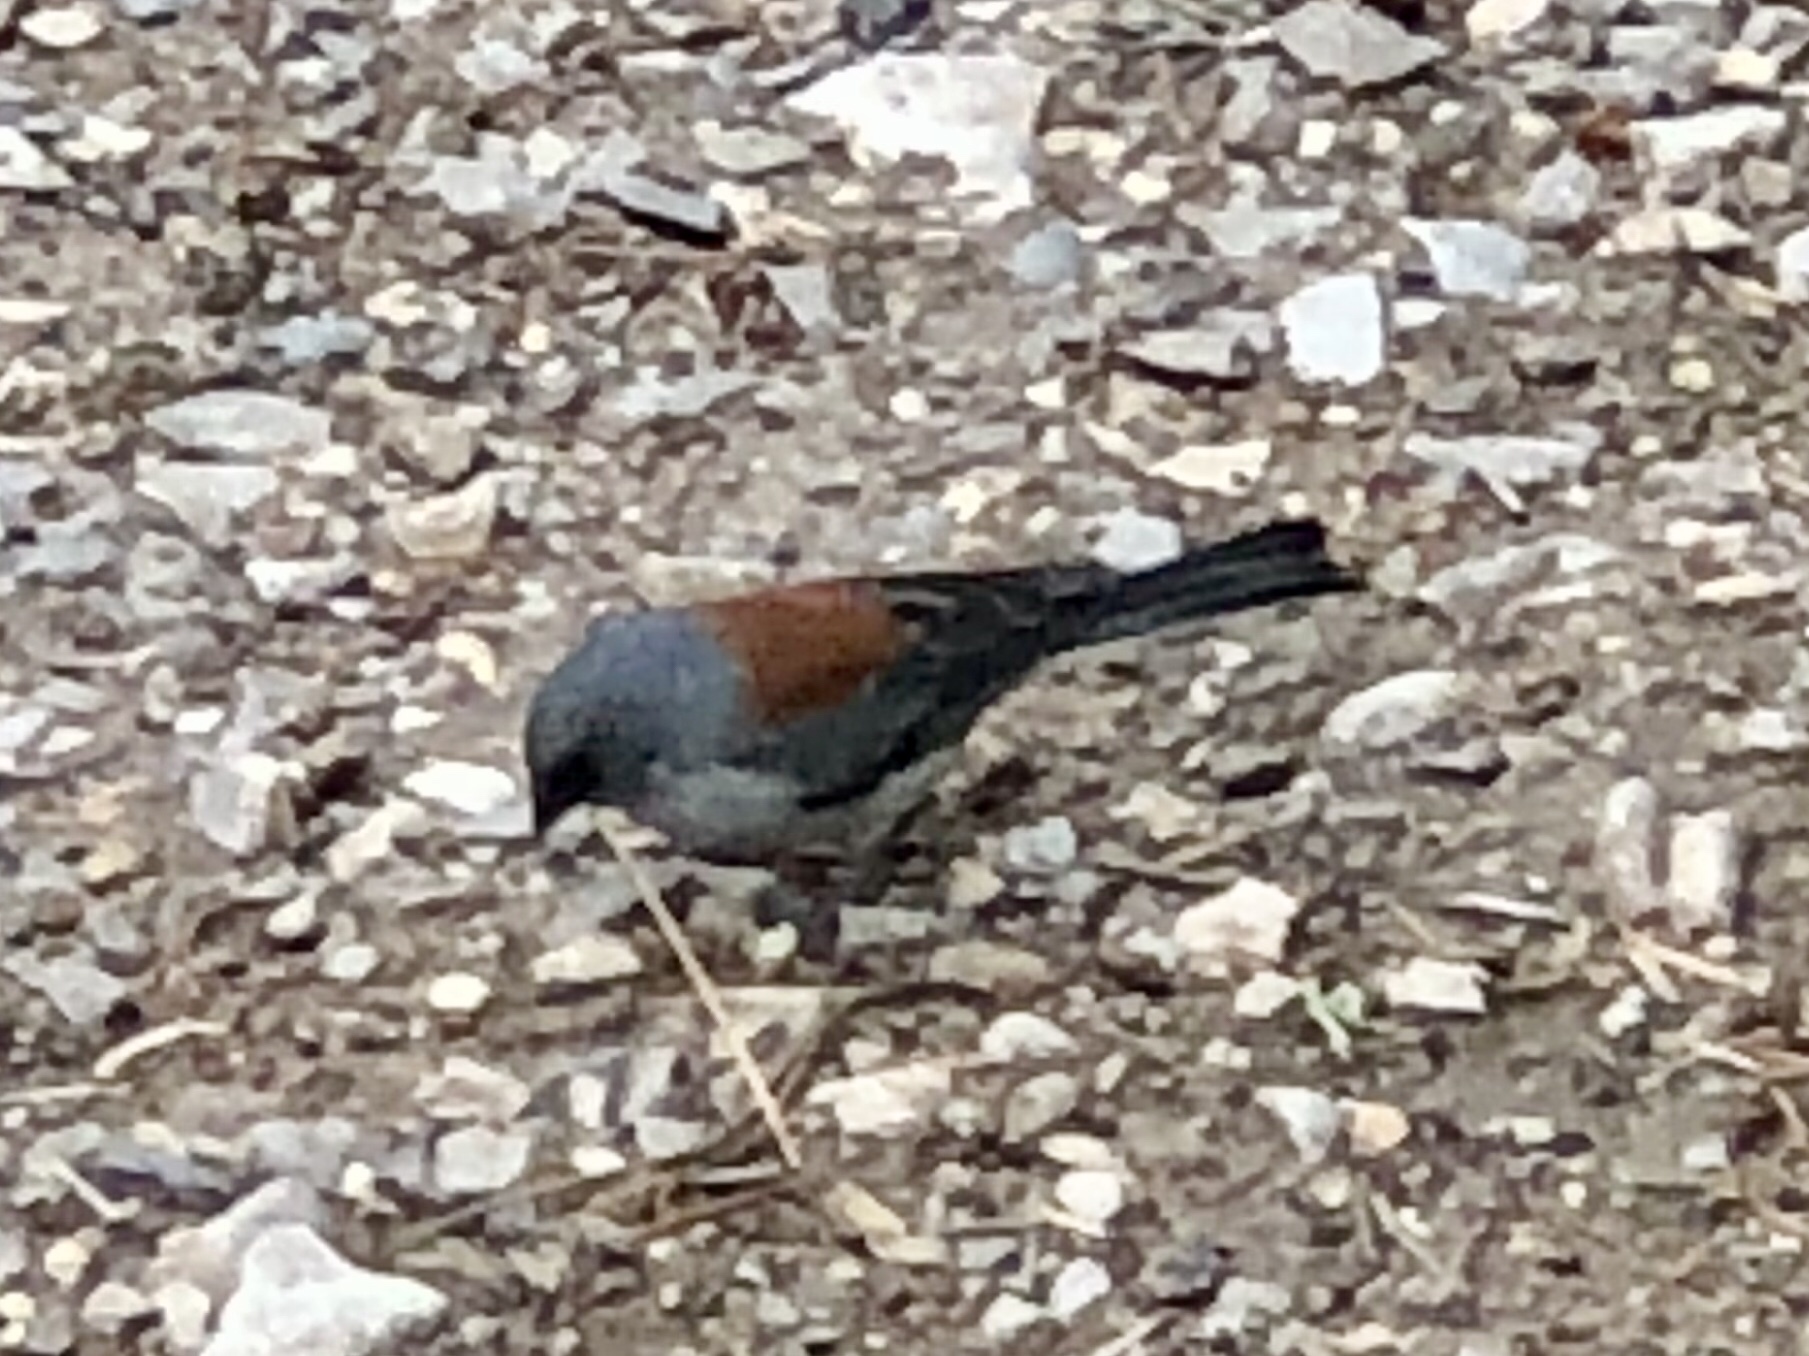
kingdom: Animalia
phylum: Chordata
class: Aves
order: Passeriformes
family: Passerellidae
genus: Junco
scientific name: Junco hyemalis
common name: Dark-eyed junco
